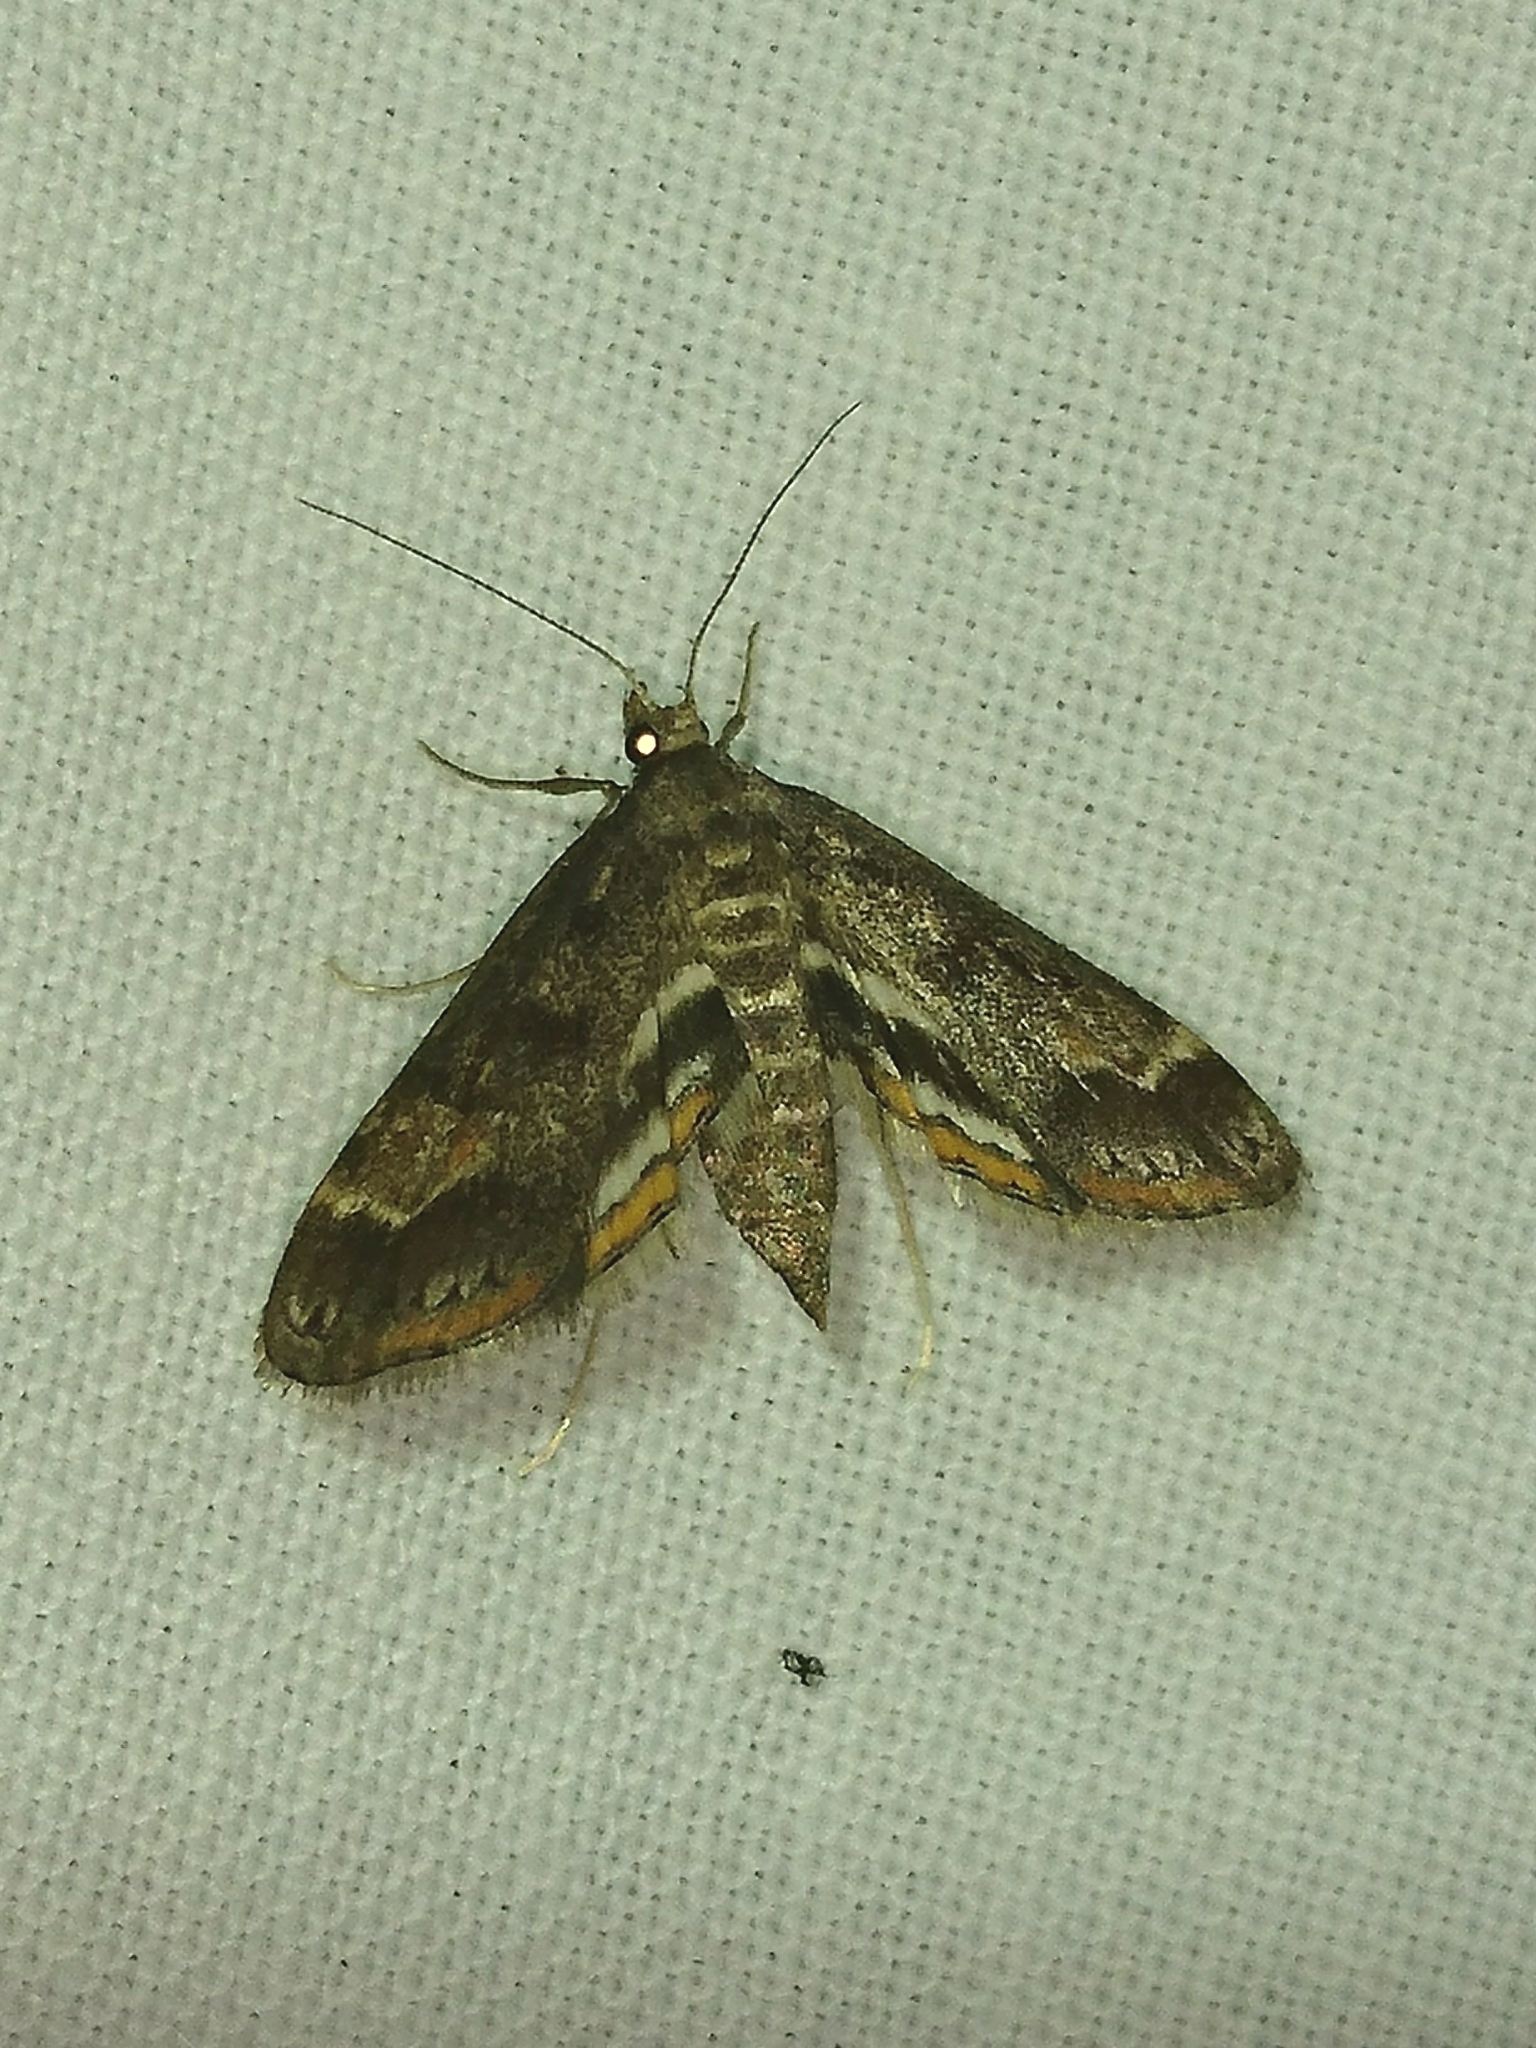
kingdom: Animalia
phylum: Arthropoda
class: Insecta
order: Lepidoptera
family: Crambidae
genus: Parapoynx
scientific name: Parapoynx obscuralis
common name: American china-mark
